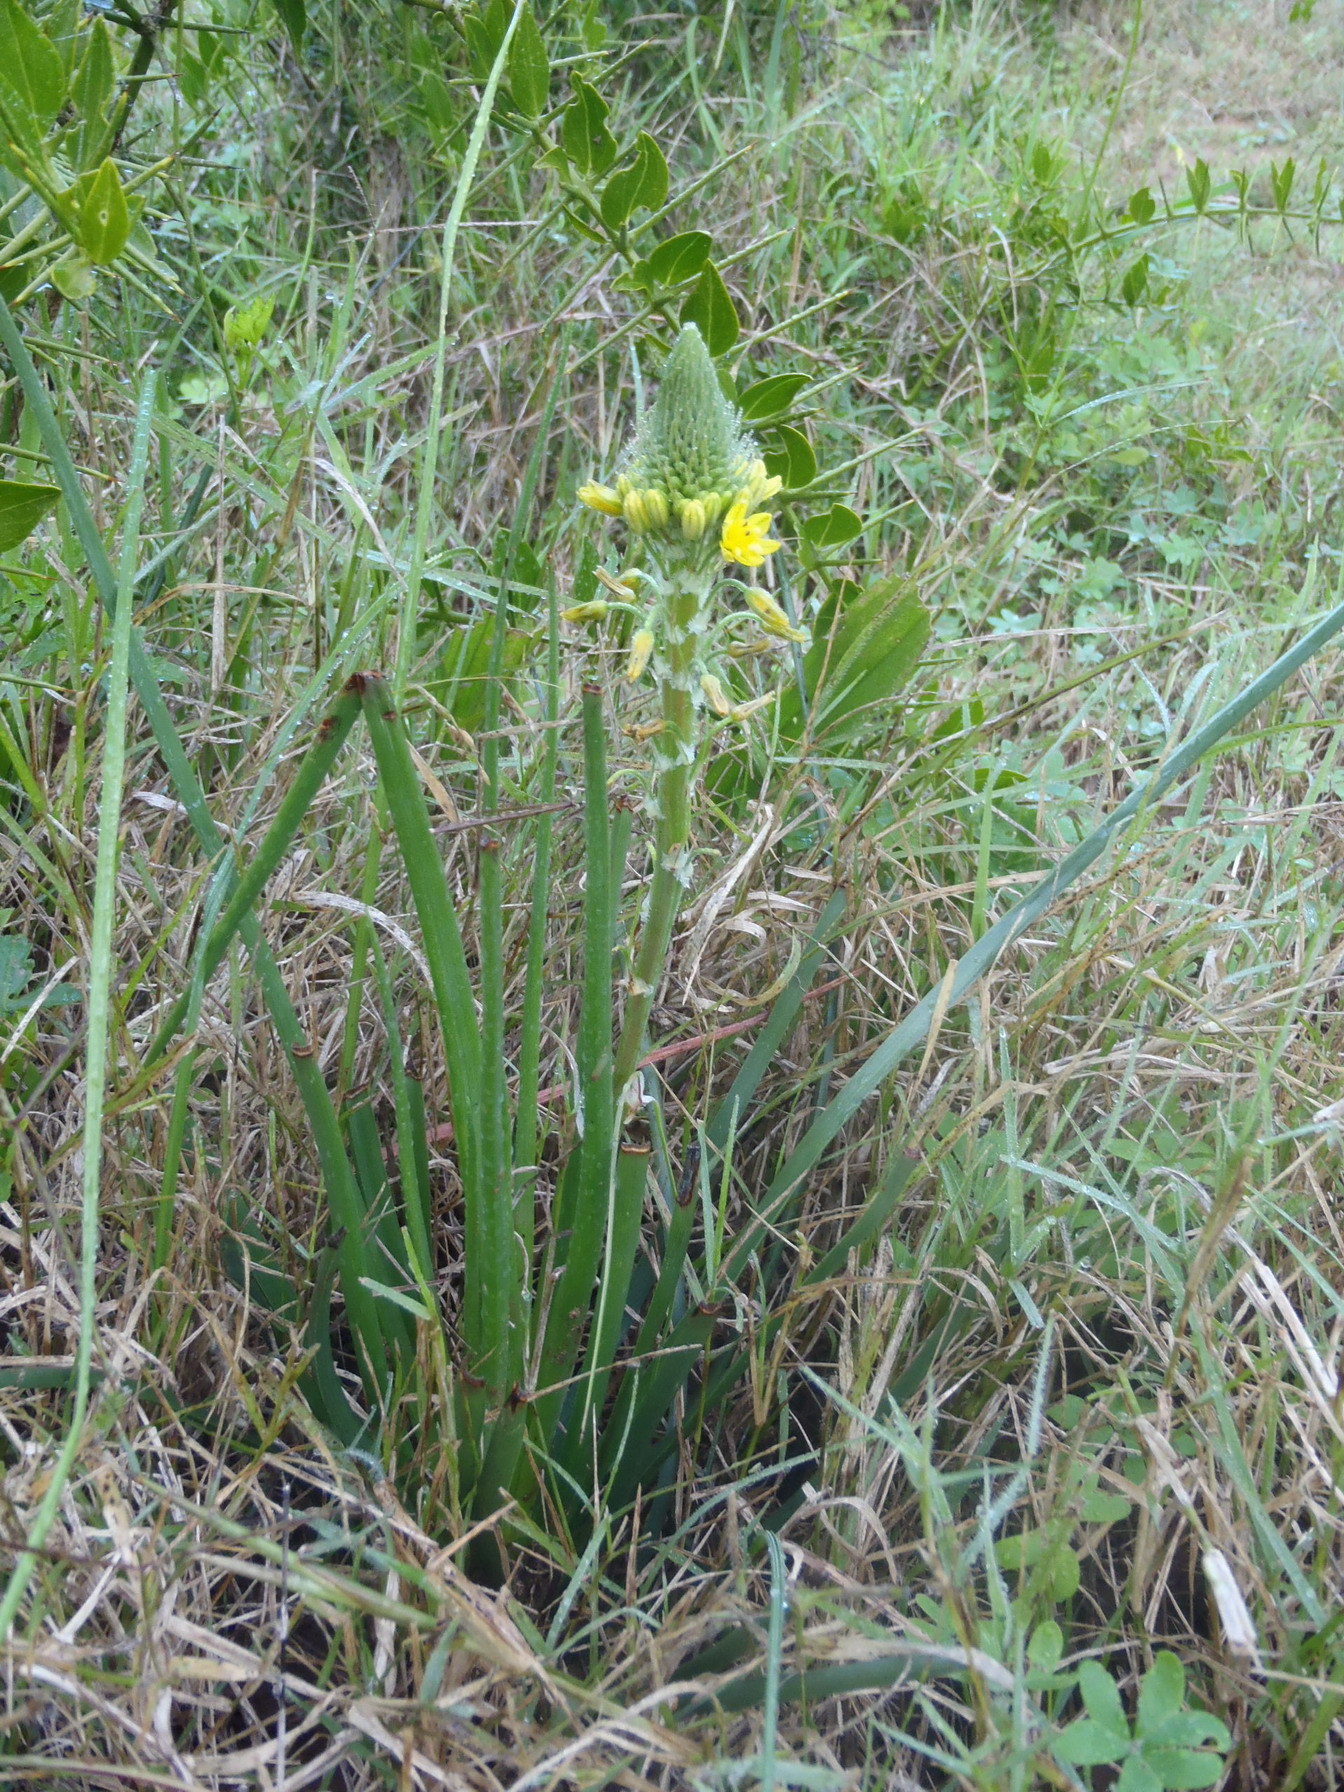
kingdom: Plantae
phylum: Tracheophyta
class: Liliopsida
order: Asparagales
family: Asphodelaceae
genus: Bulbine
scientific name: Bulbine lagopus
